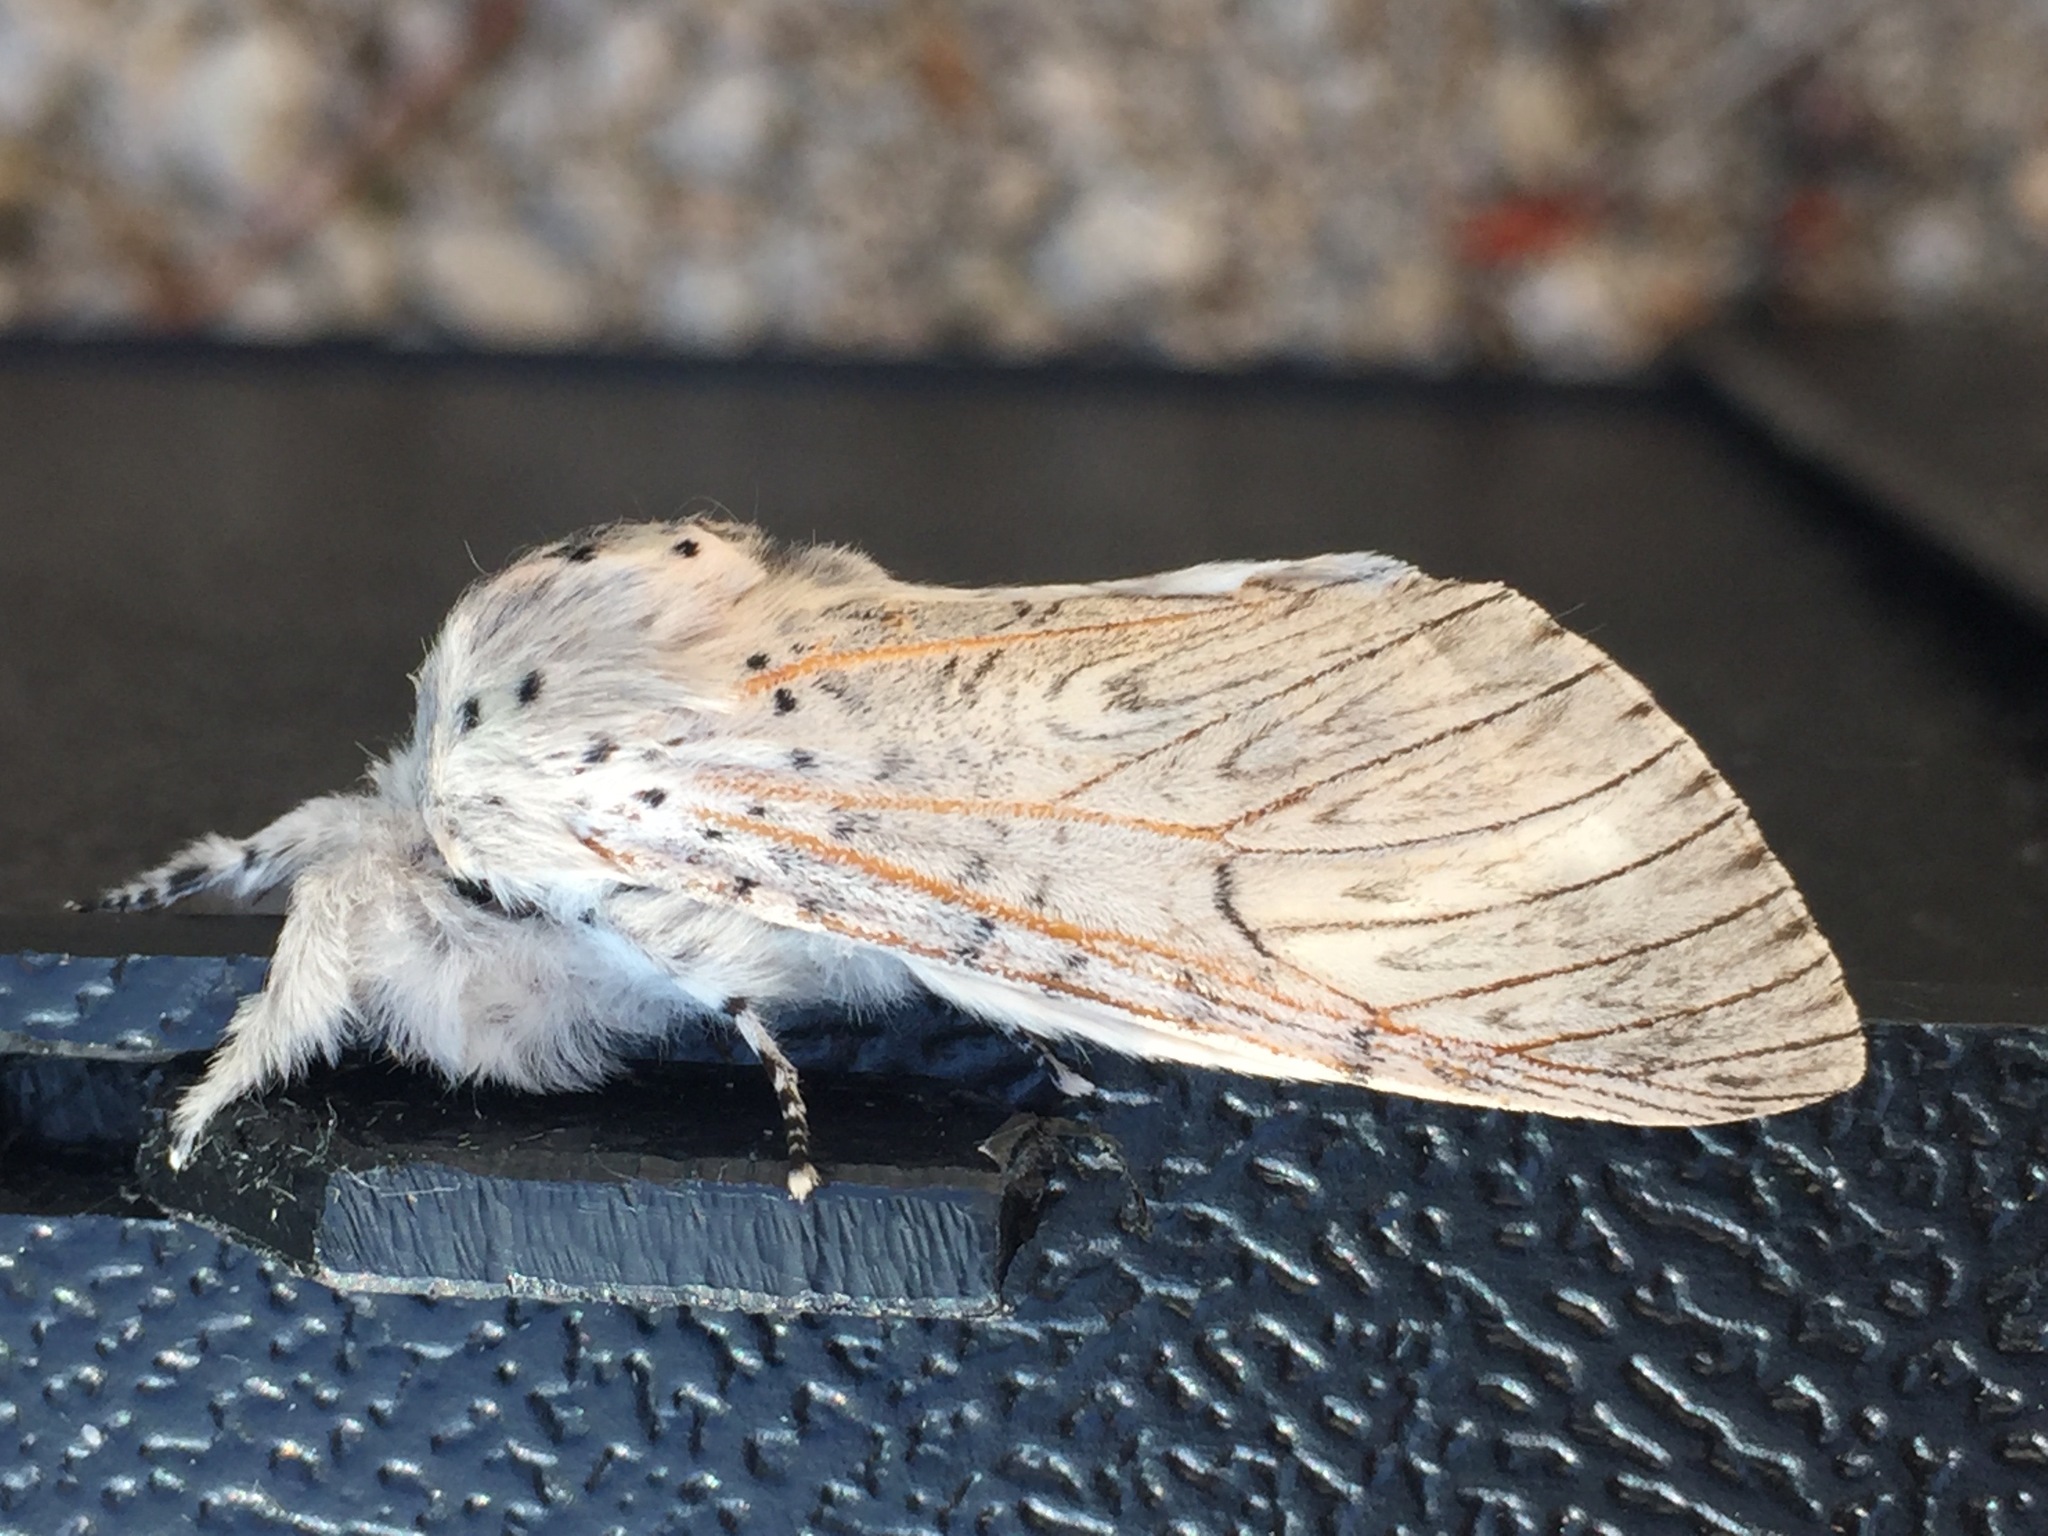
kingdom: Animalia
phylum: Arthropoda
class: Insecta
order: Lepidoptera
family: Notodontidae
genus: Cerura
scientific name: Cerura iberica
